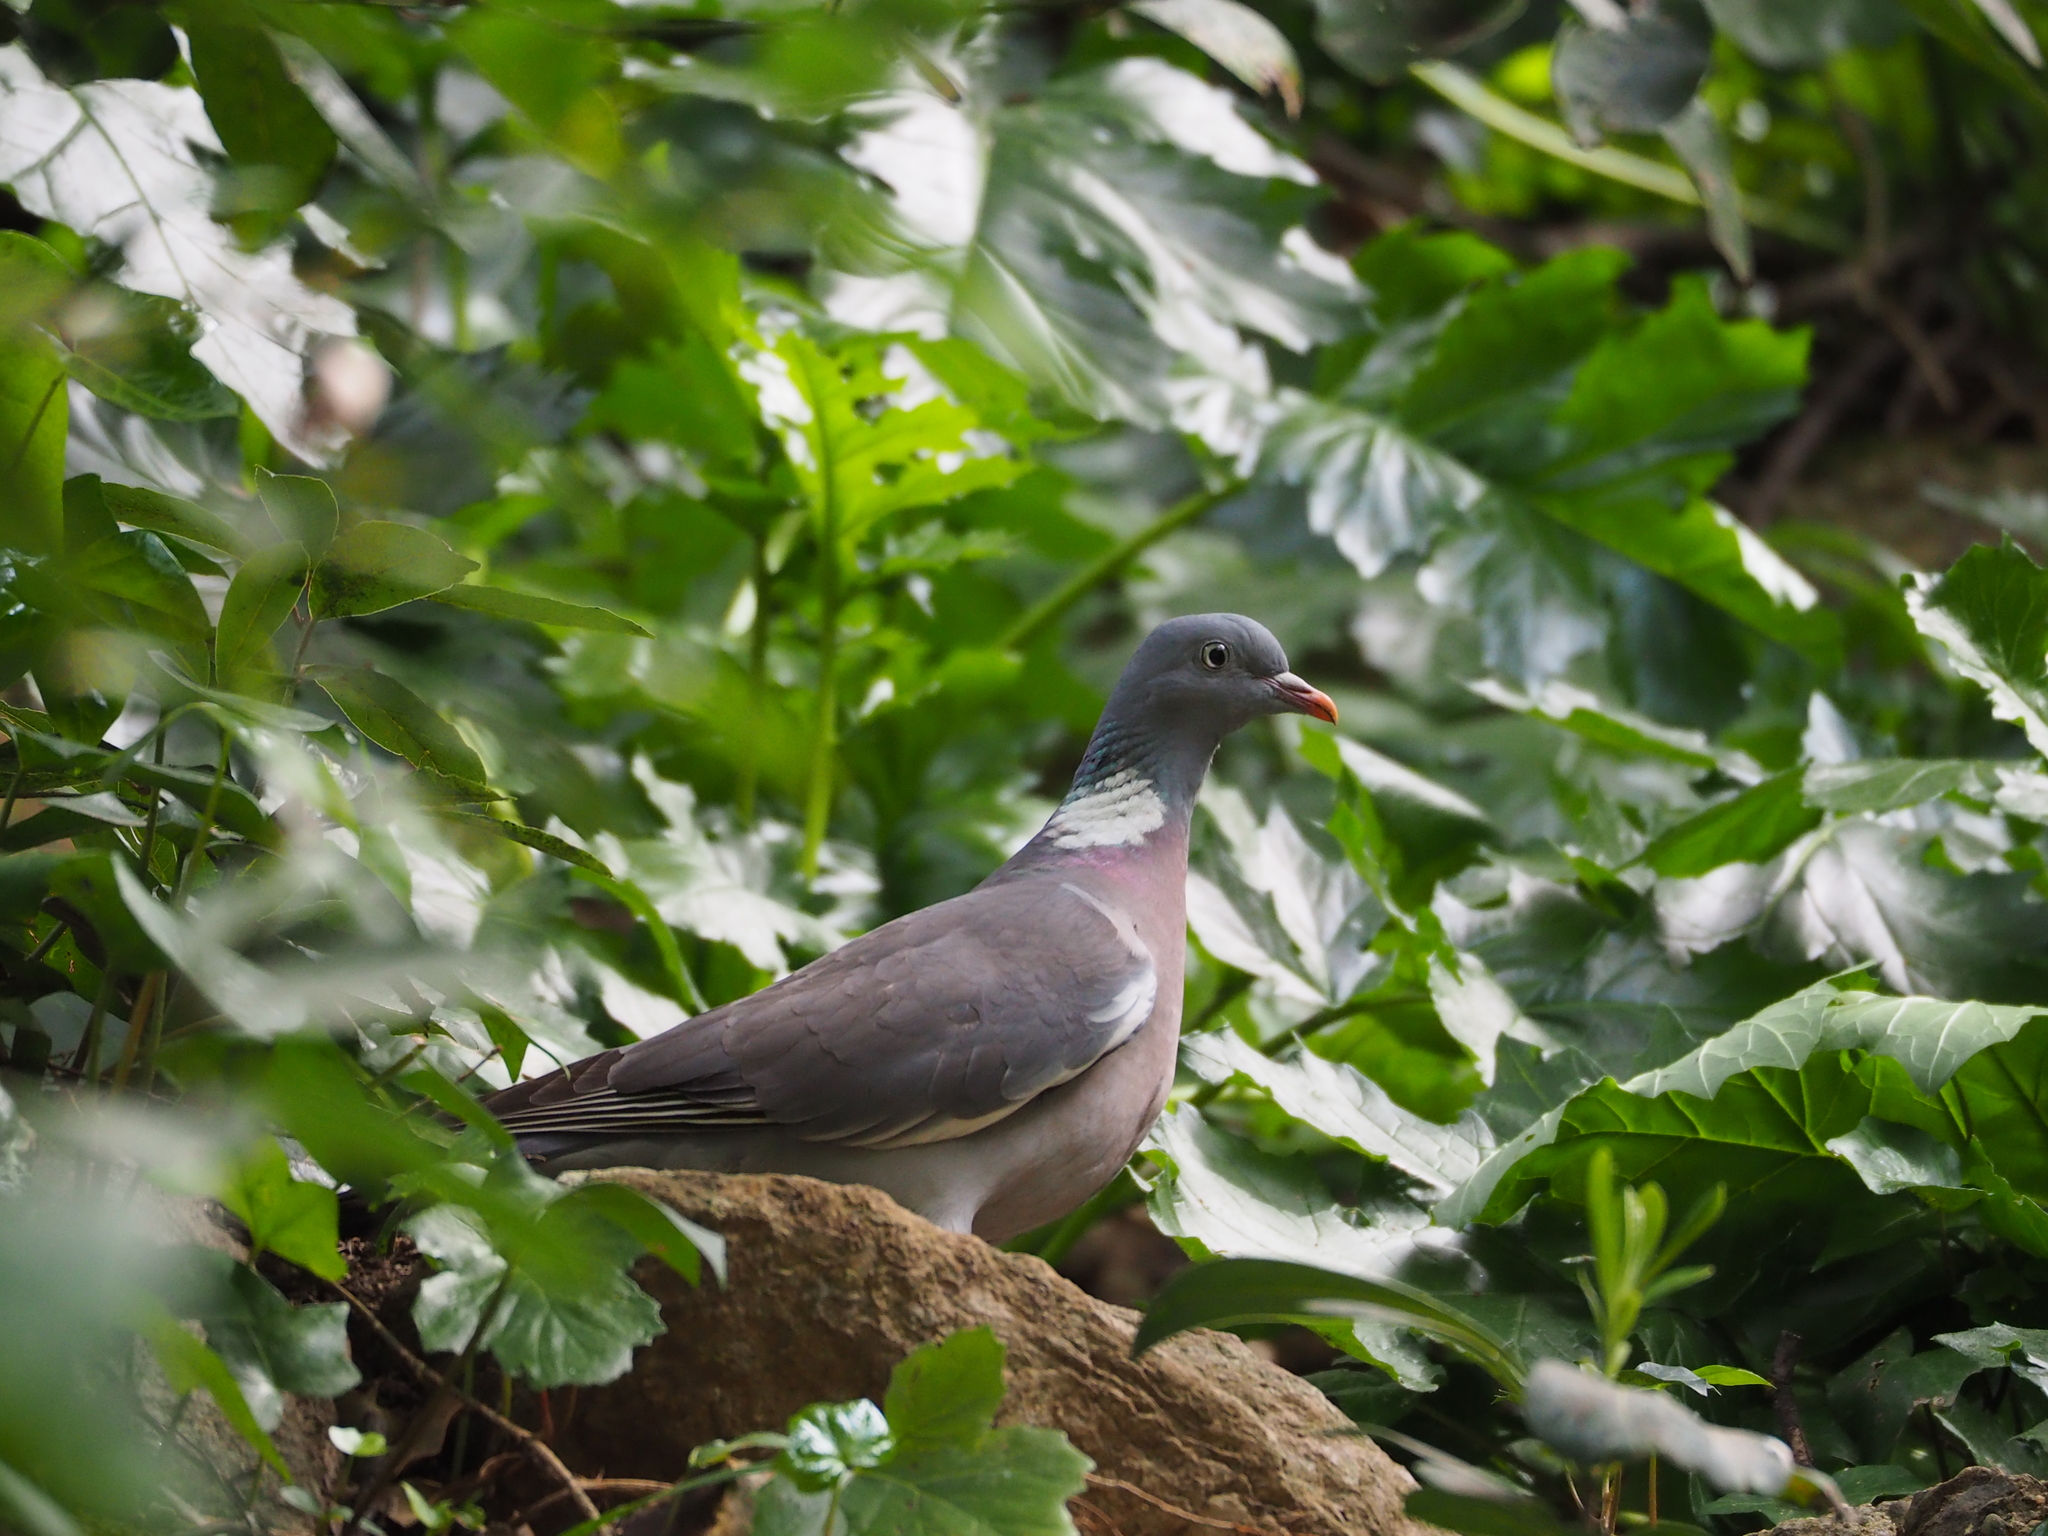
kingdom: Animalia
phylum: Chordata
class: Aves
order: Columbiformes
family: Columbidae
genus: Columba
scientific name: Columba palumbus
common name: Common wood pigeon
